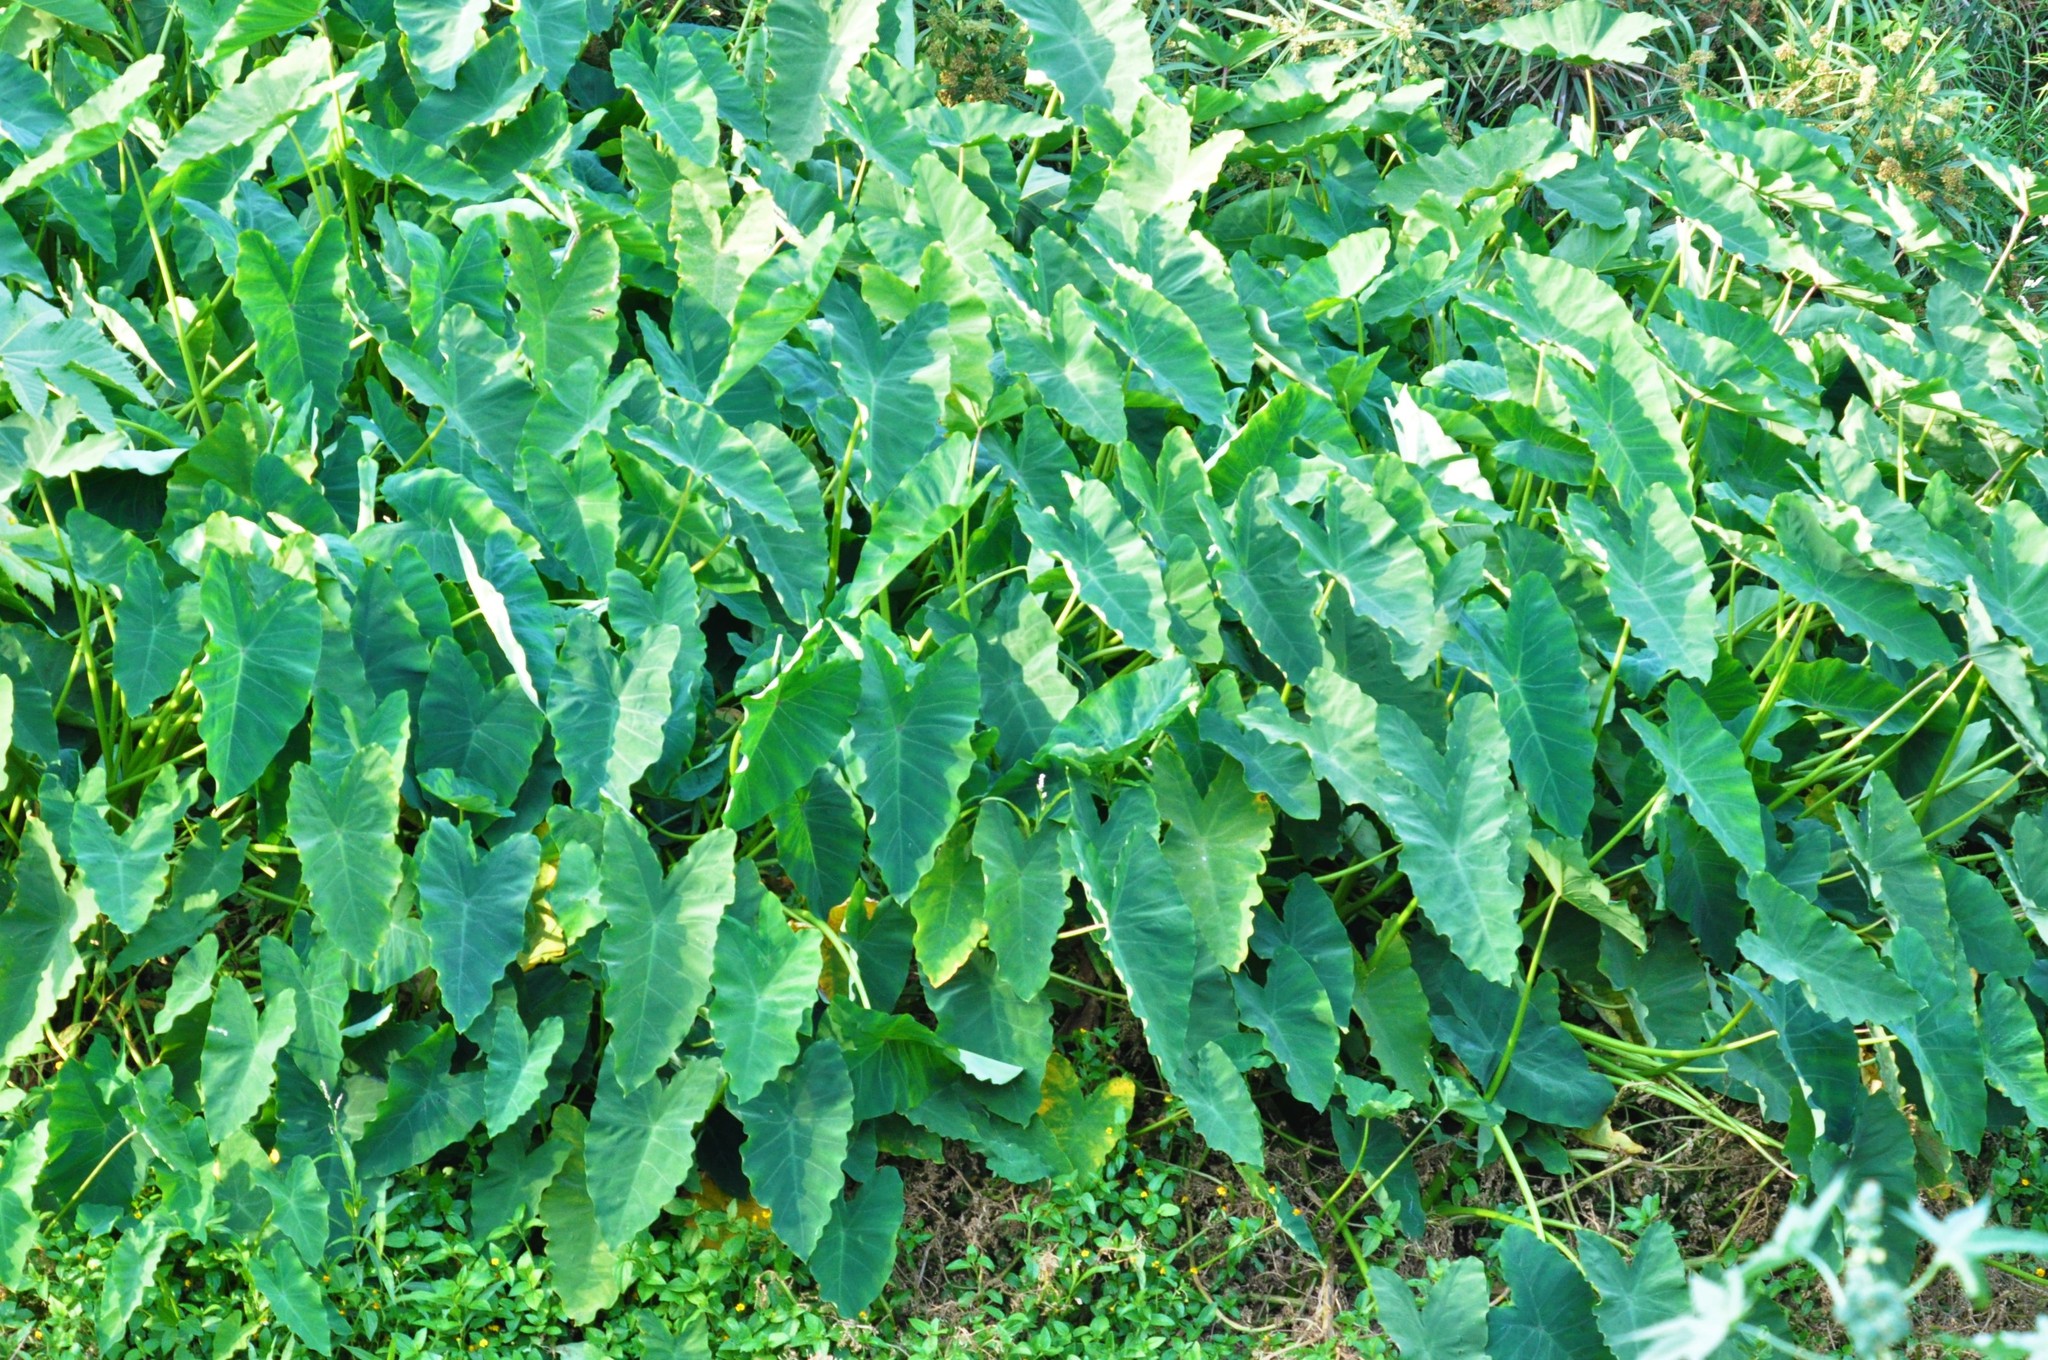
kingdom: Plantae
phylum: Tracheophyta
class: Liliopsida
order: Alismatales
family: Araceae
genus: Colocasia
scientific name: Colocasia esculenta
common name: Taro
